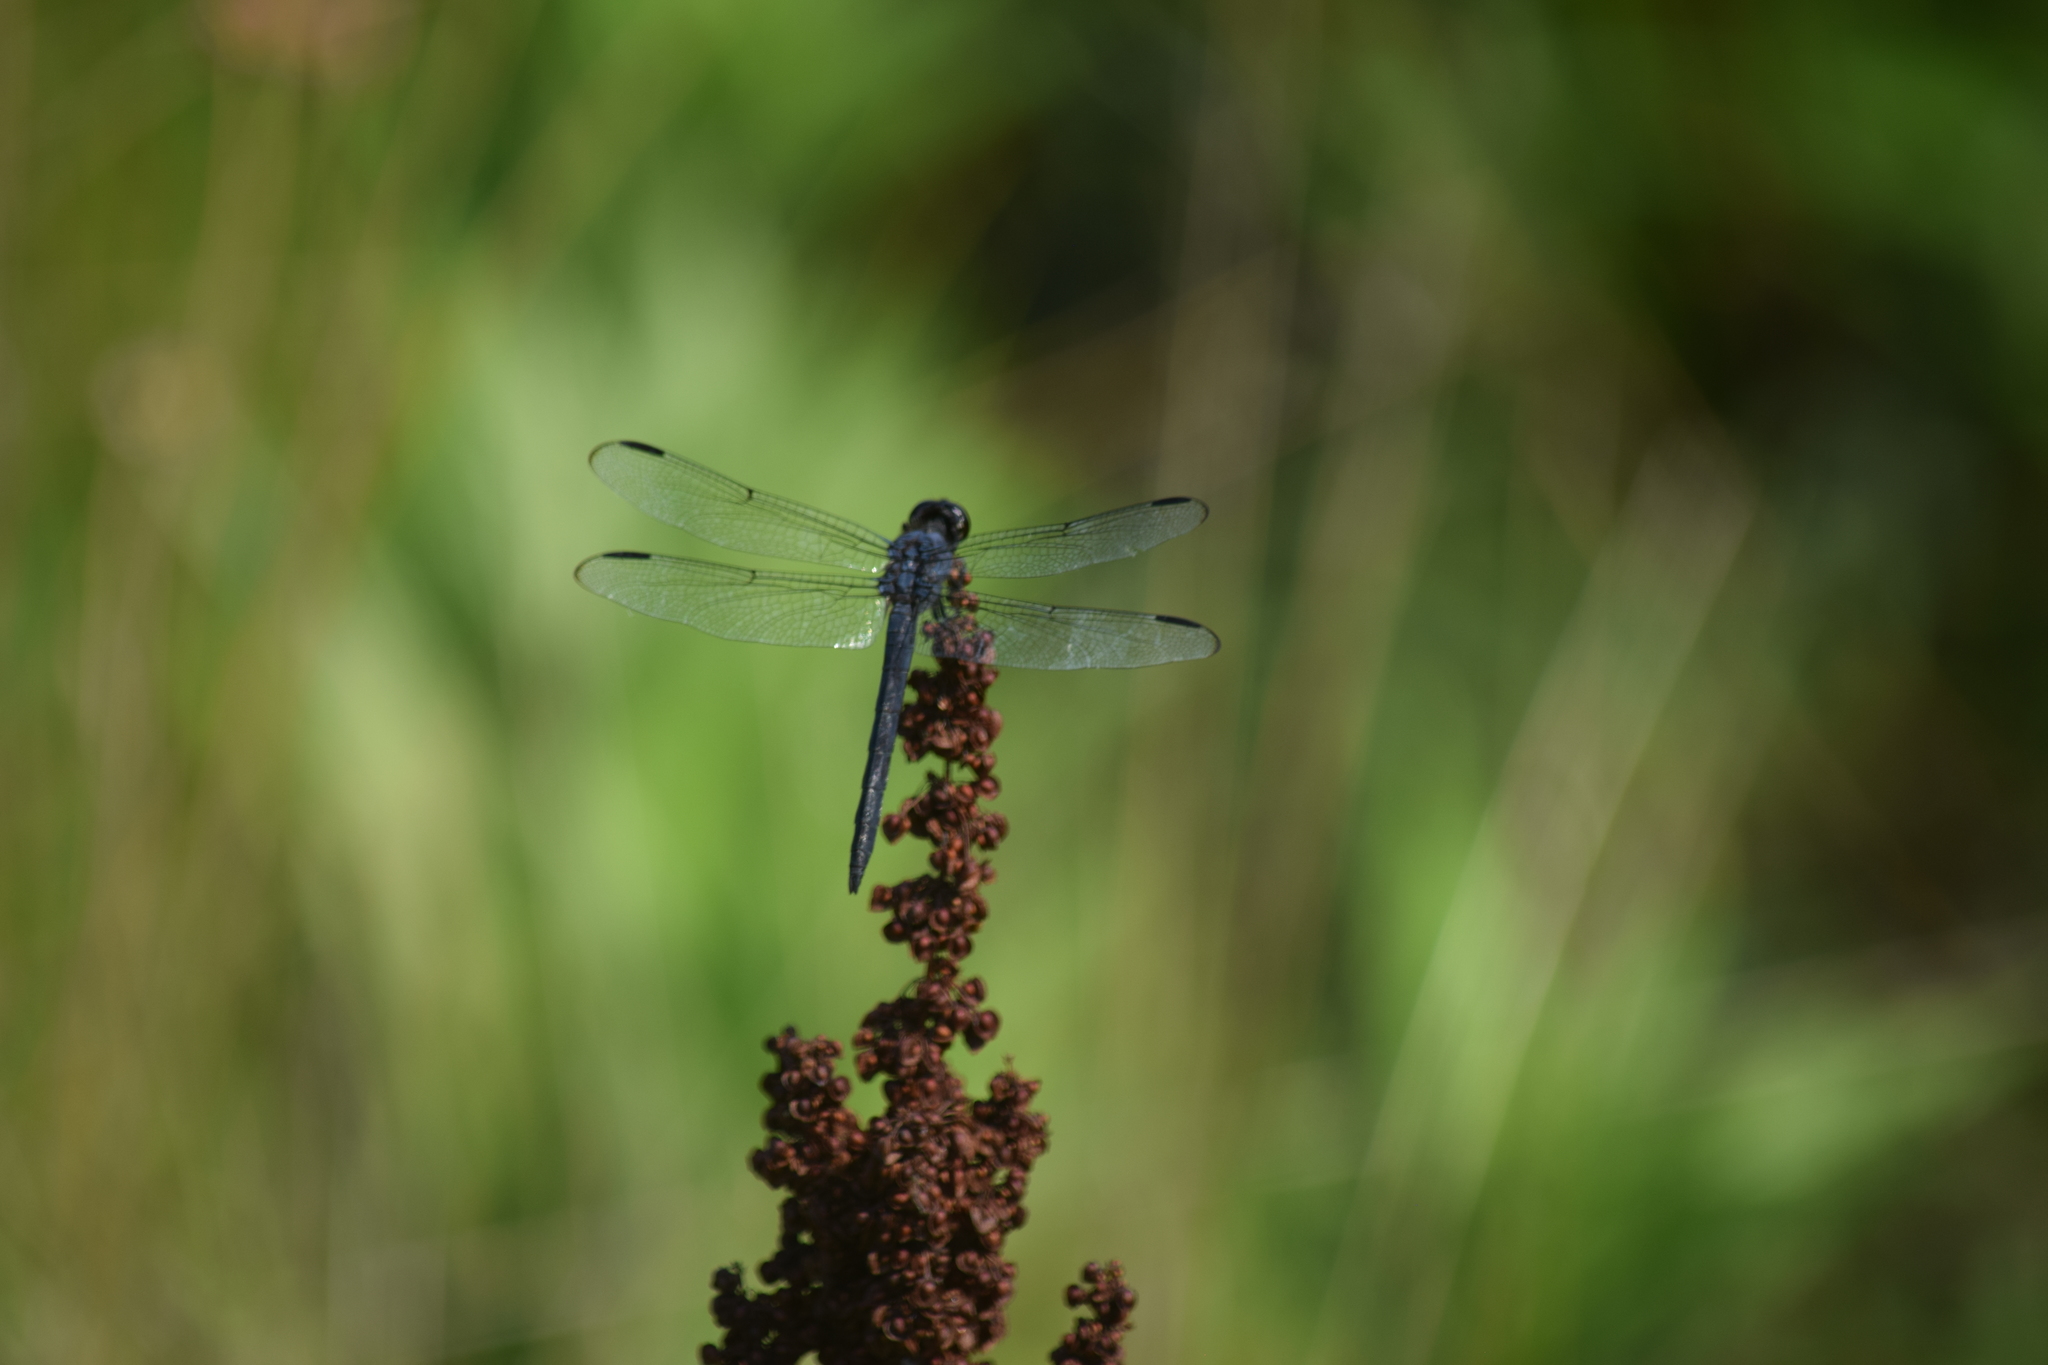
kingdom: Animalia
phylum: Arthropoda
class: Insecta
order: Odonata
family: Libellulidae
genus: Libellula
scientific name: Libellula incesta
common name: Slaty skimmer
